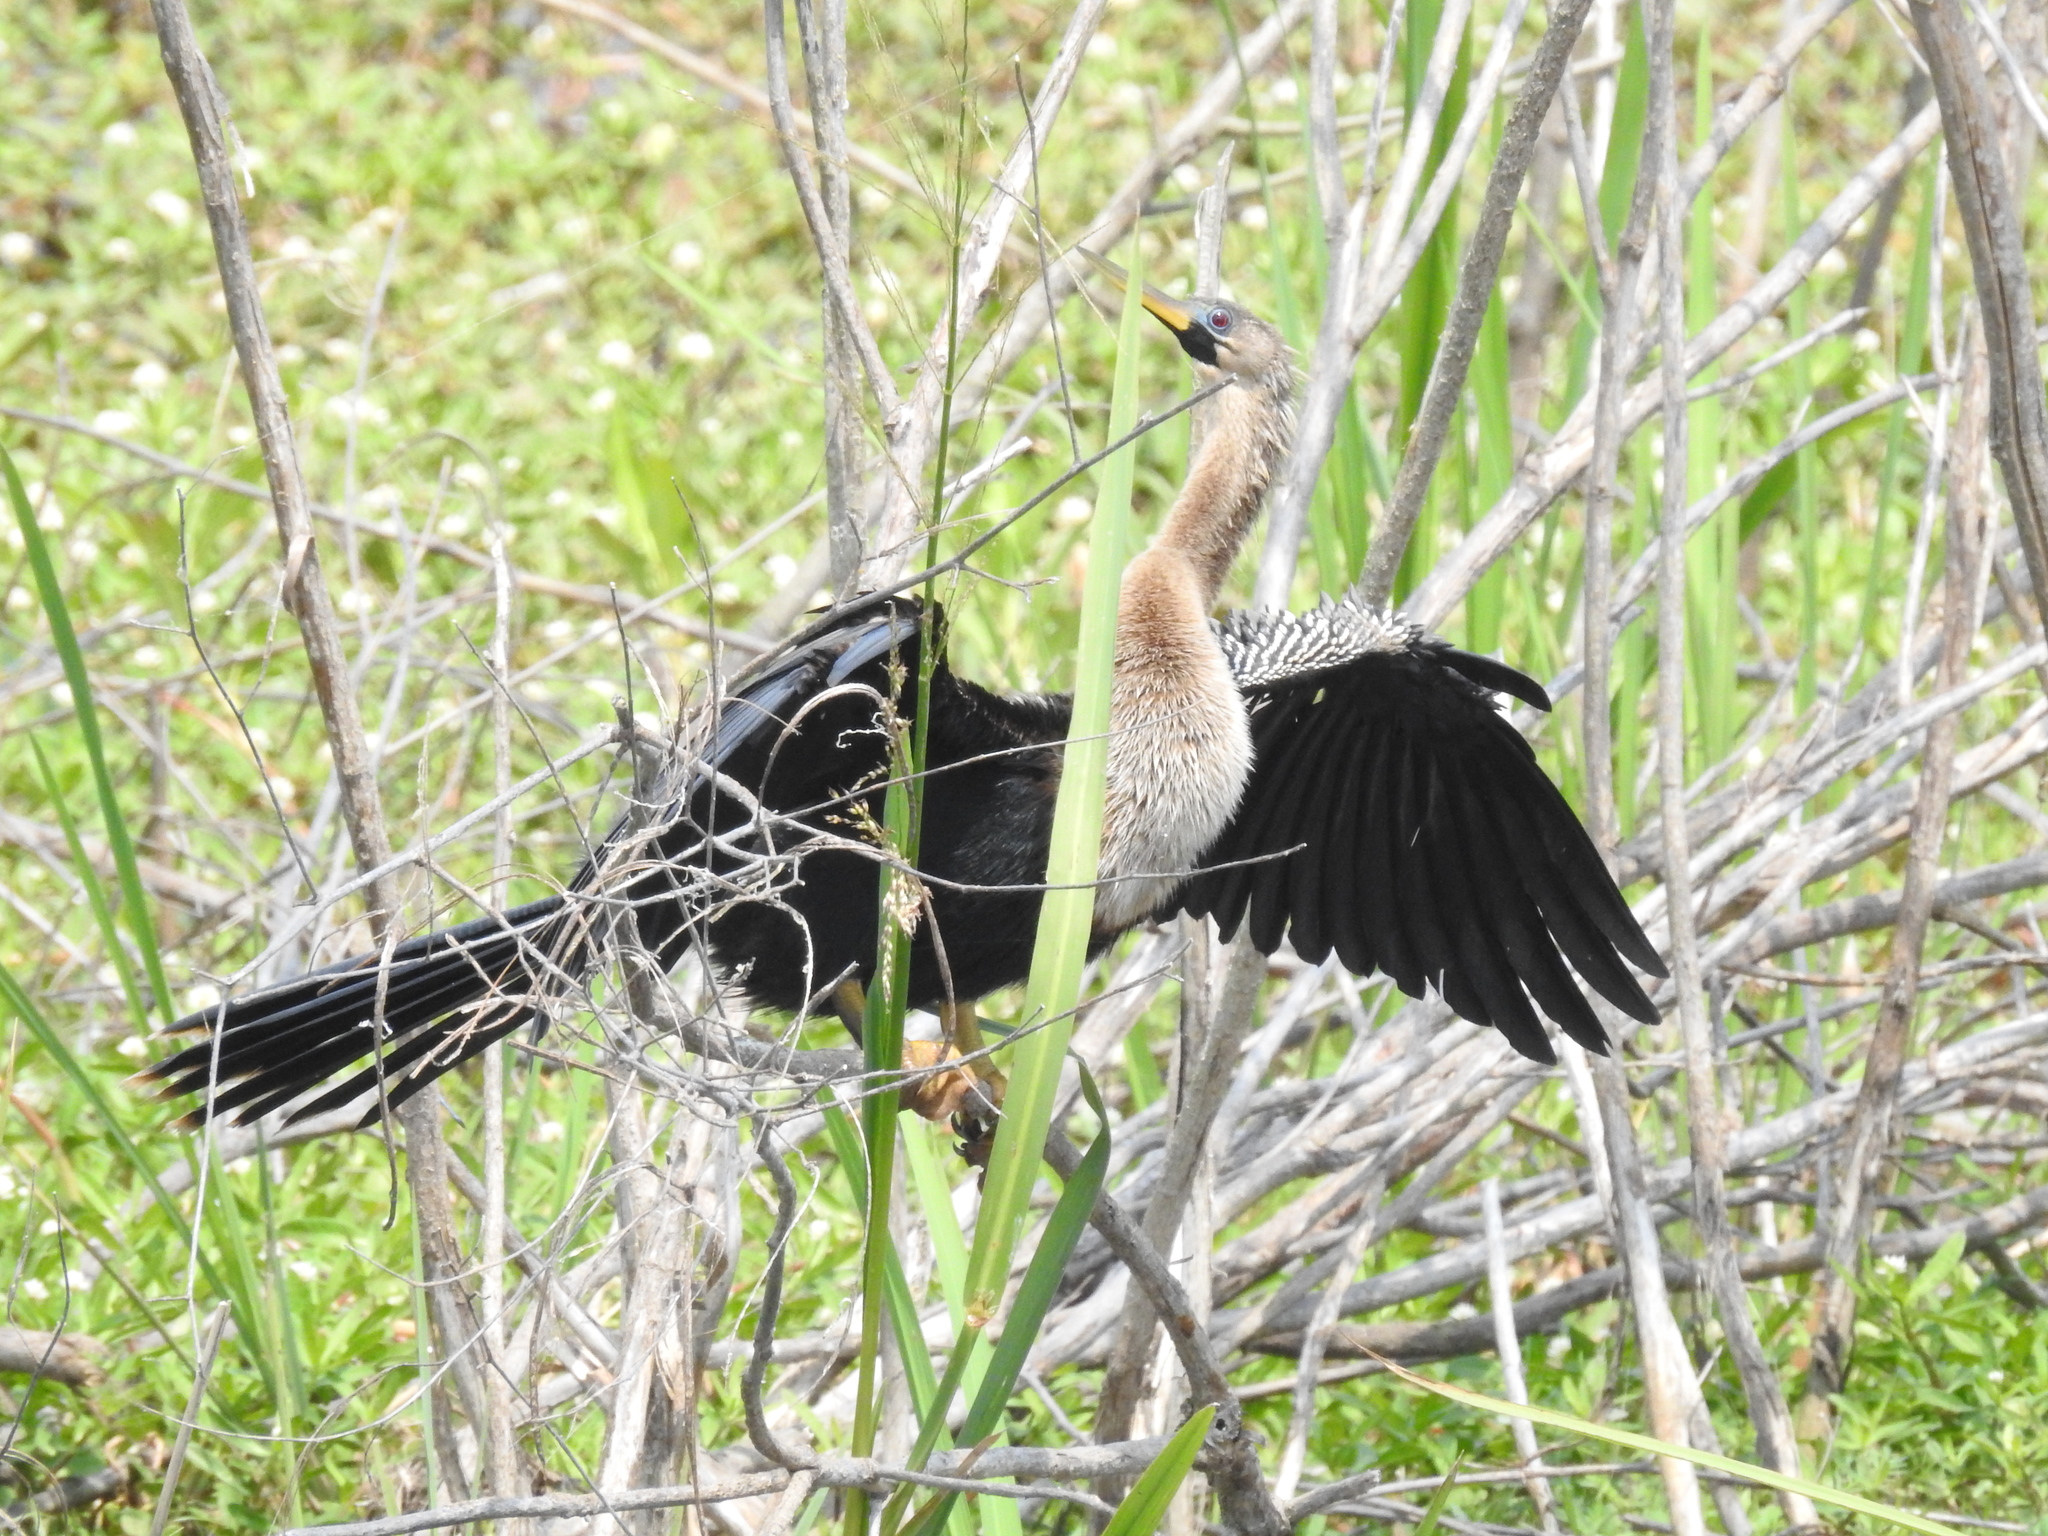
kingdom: Animalia
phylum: Chordata
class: Aves
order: Suliformes
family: Anhingidae
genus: Anhinga
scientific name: Anhinga anhinga
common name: Anhinga
